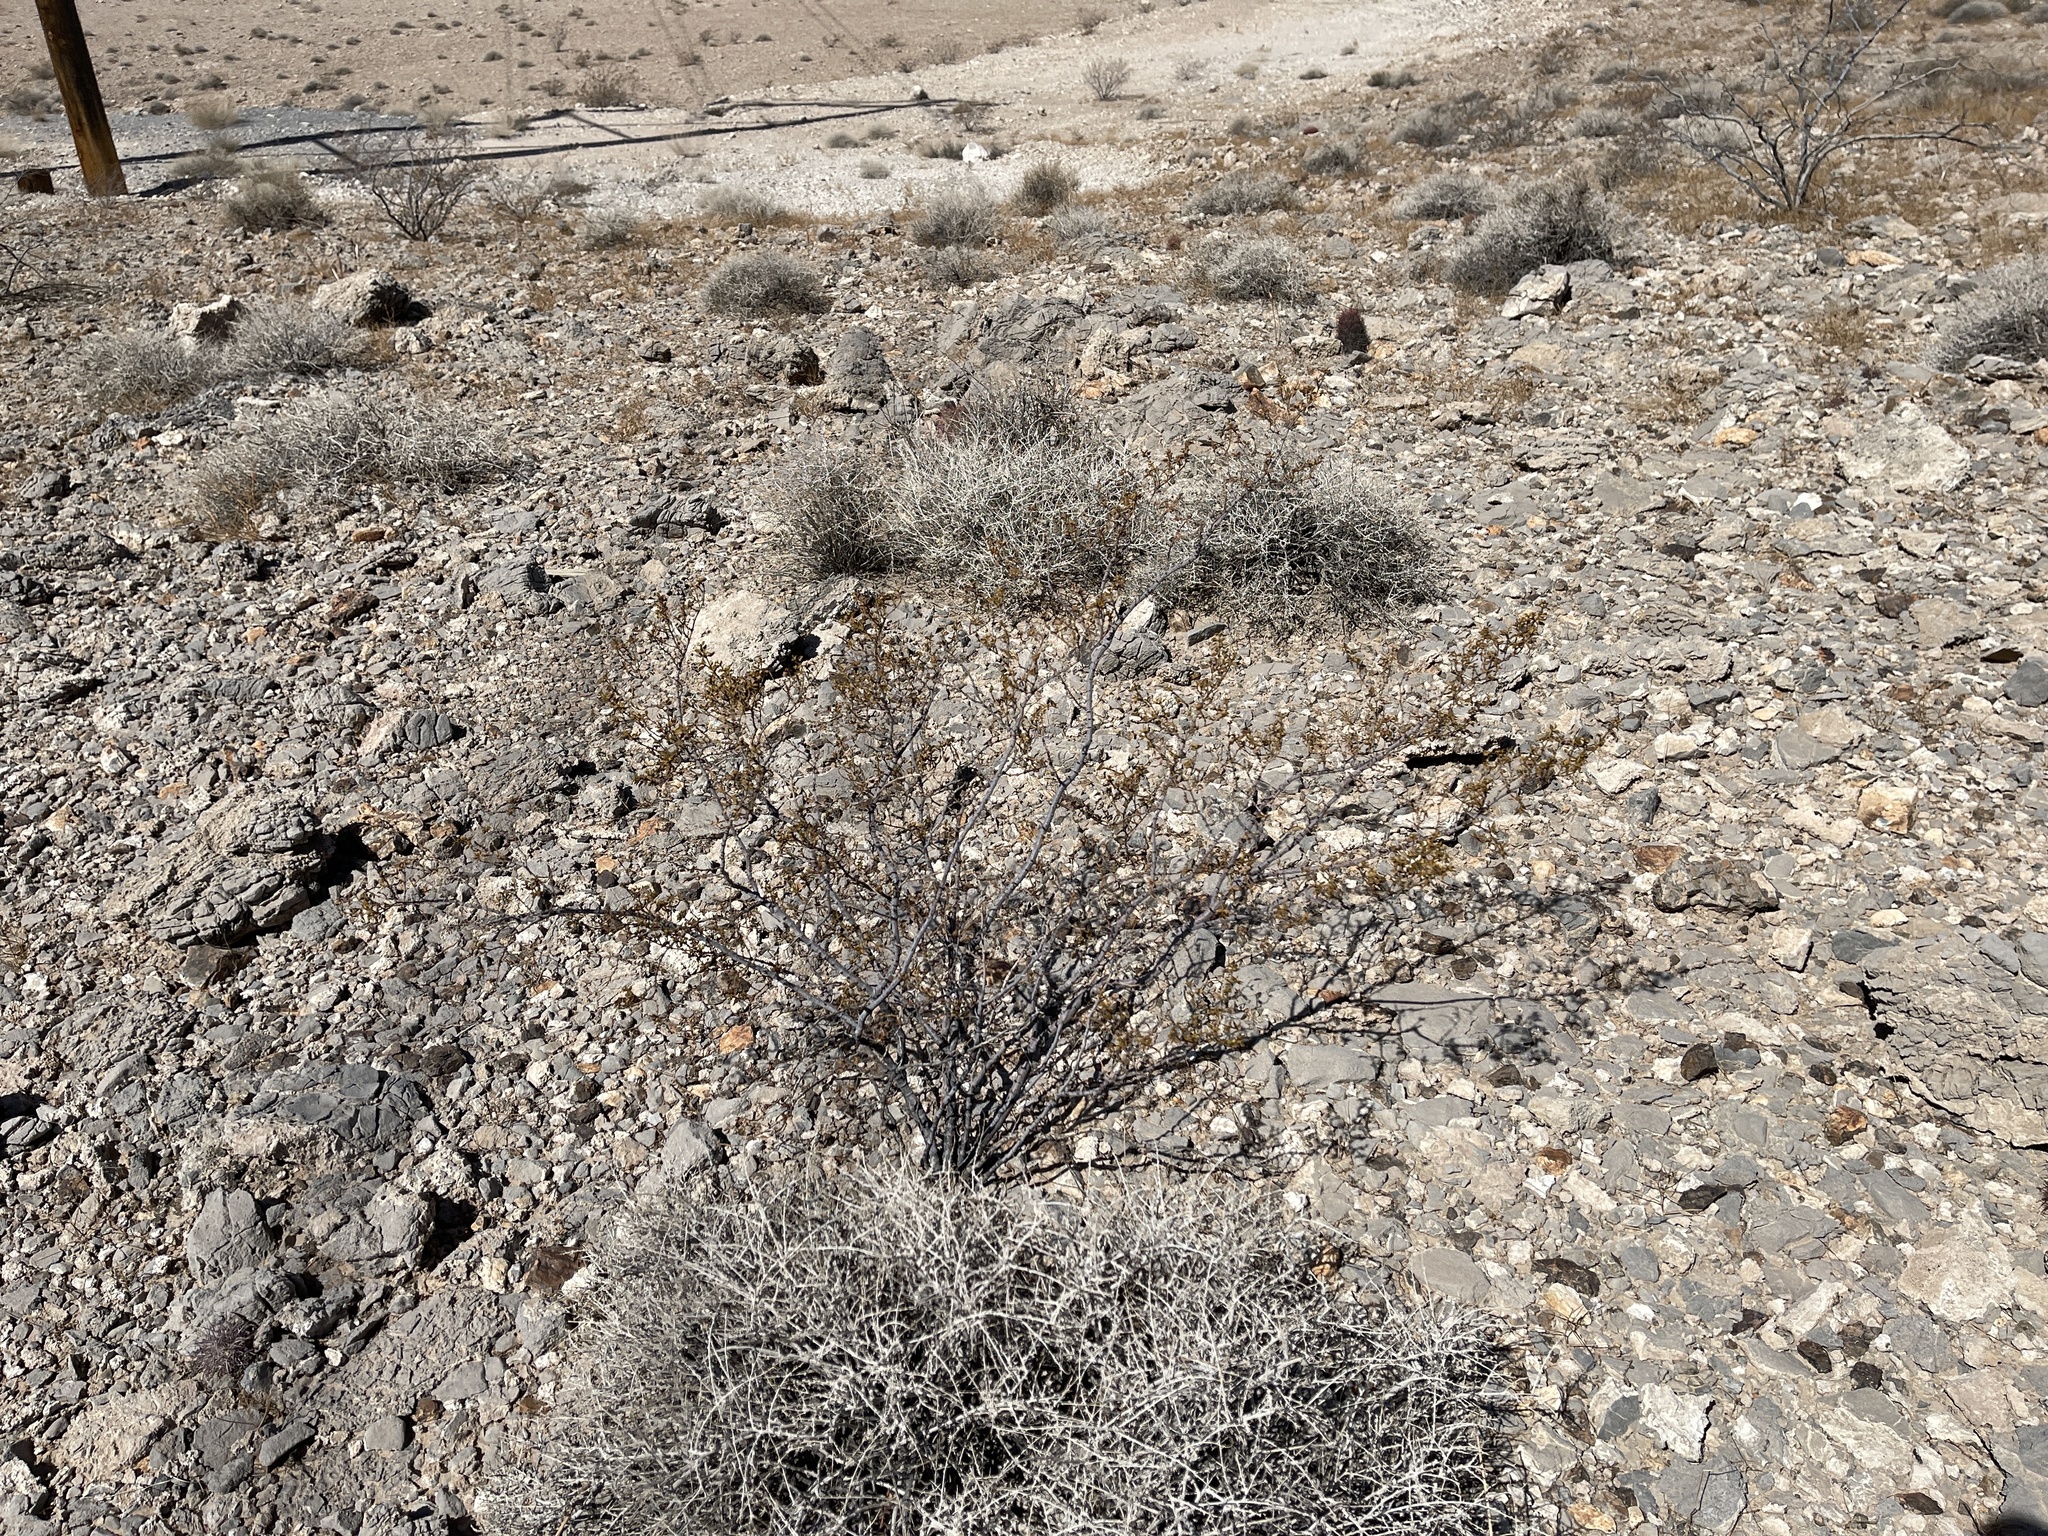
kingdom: Plantae
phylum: Tracheophyta
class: Magnoliopsida
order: Zygophyllales
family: Zygophyllaceae
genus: Larrea
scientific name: Larrea tridentata
